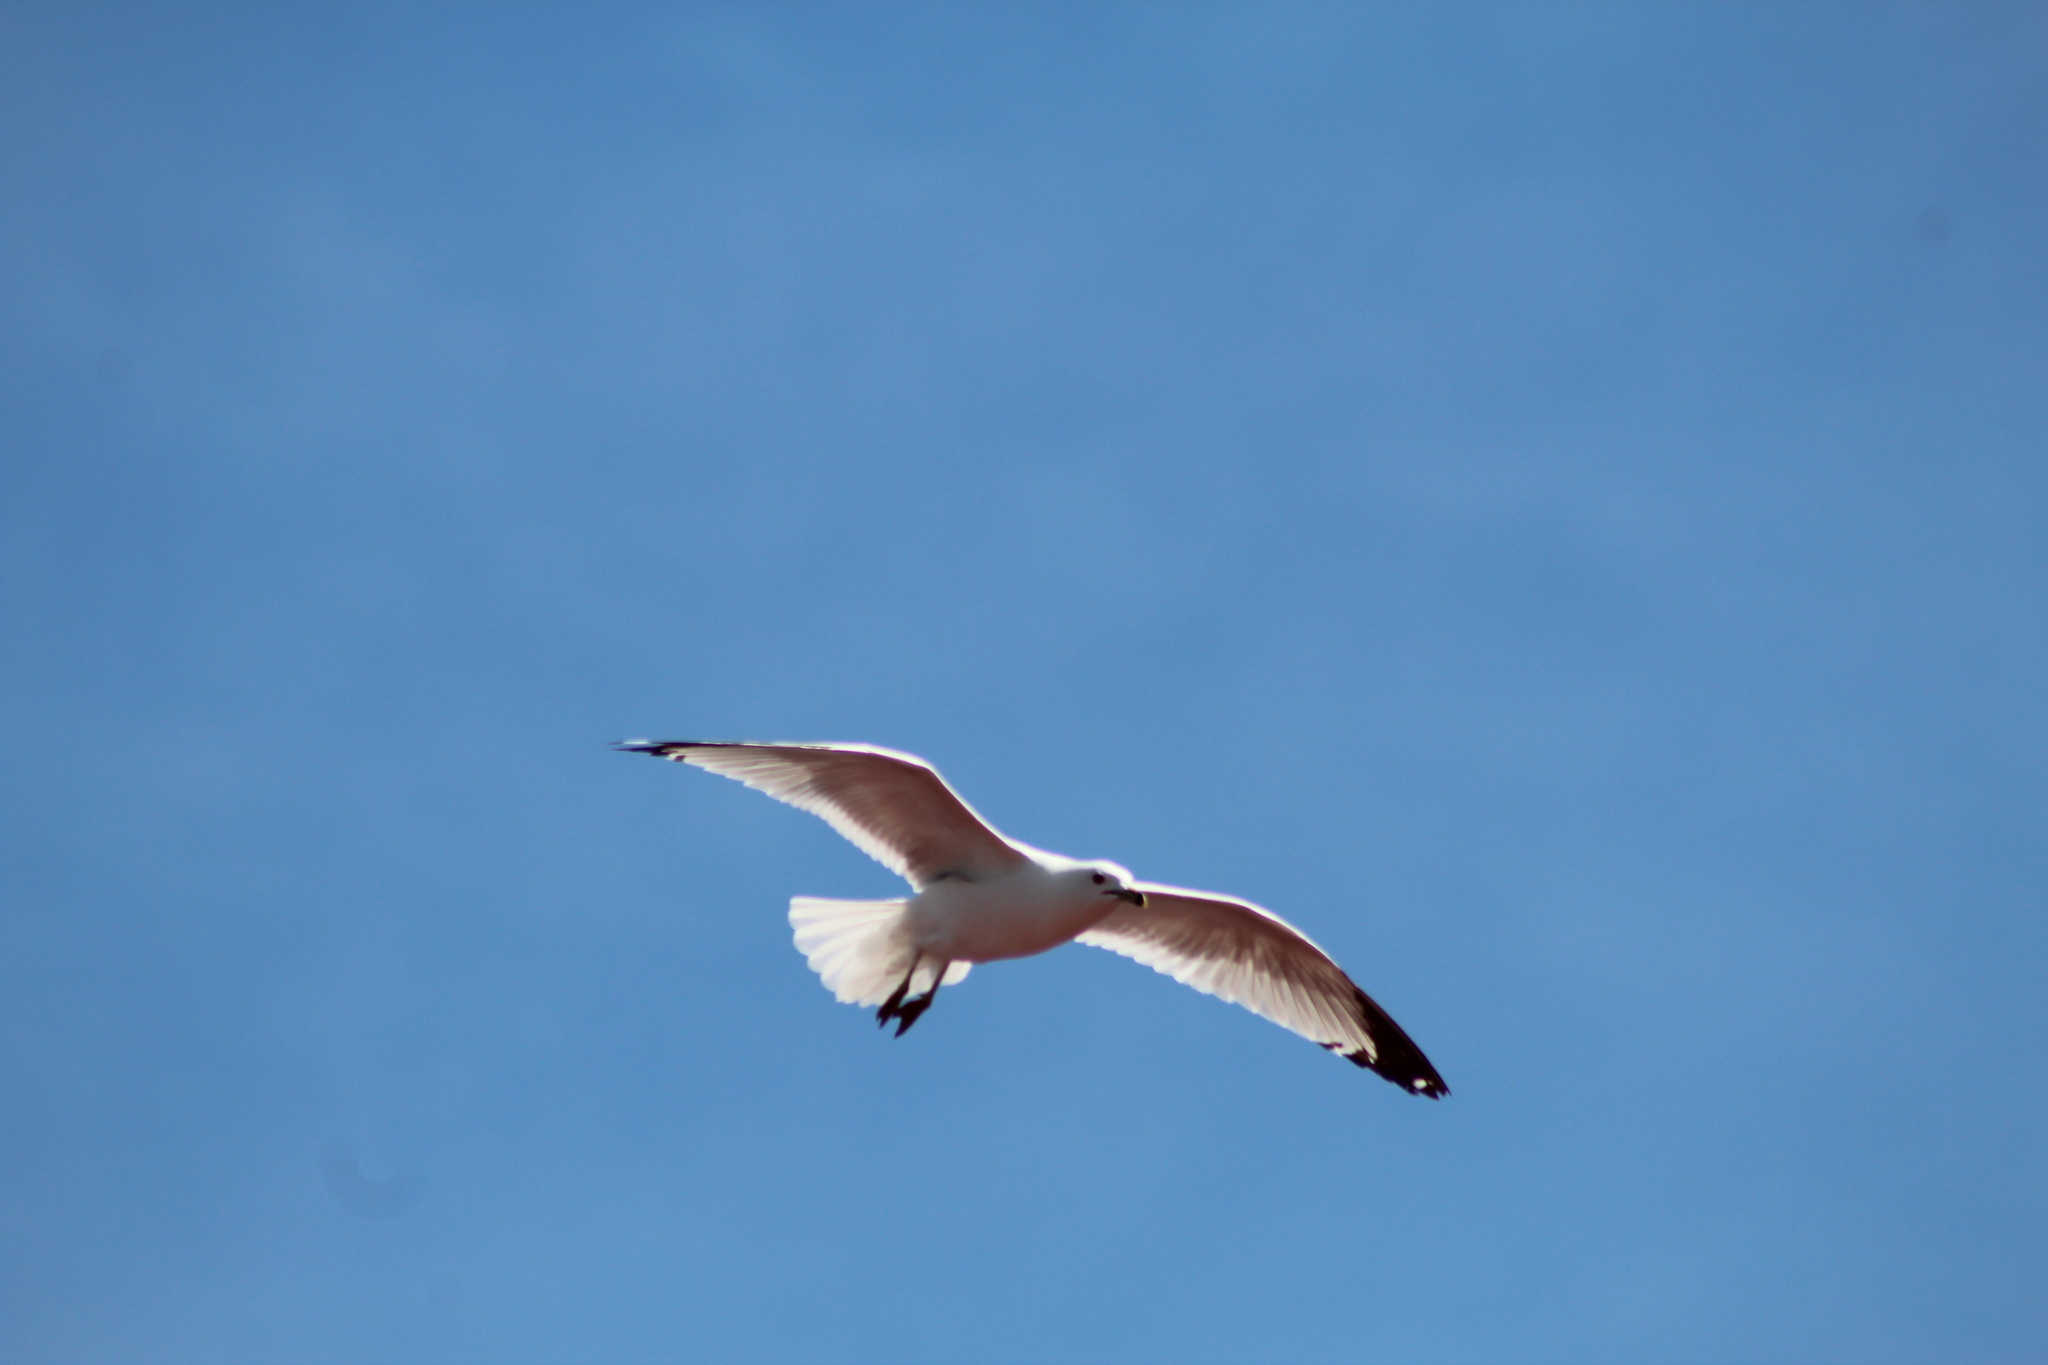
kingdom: Animalia
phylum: Chordata
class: Aves
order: Charadriiformes
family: Laridae
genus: Larus
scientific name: Larus delawarensis
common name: Ring-billed gull
